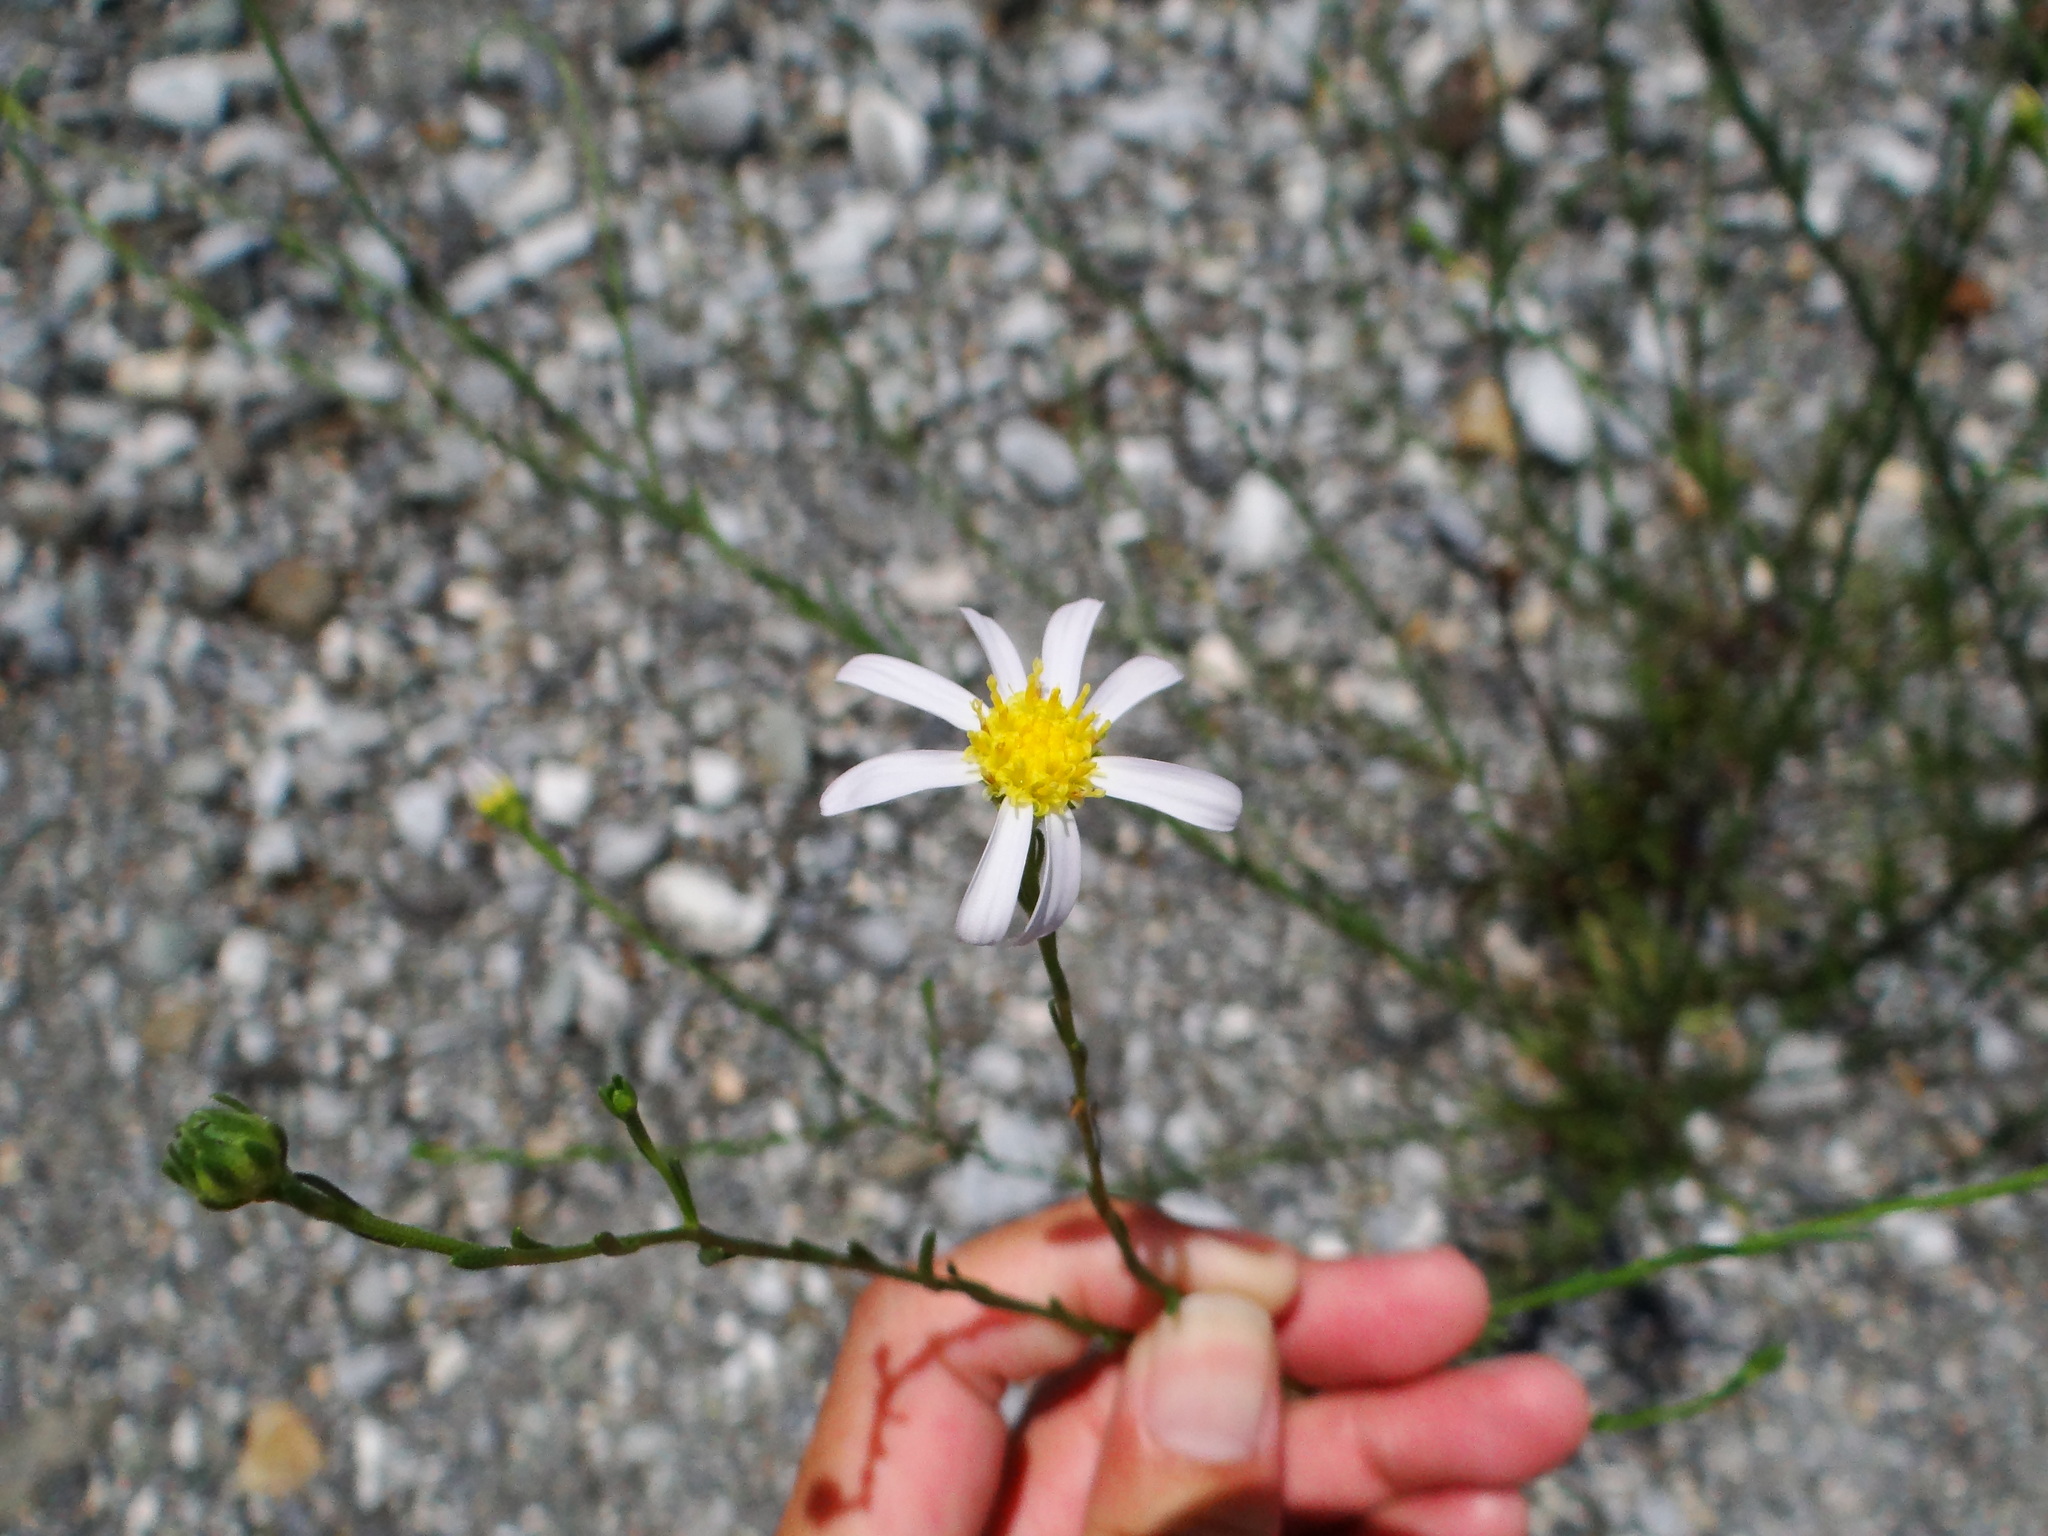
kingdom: Plantae
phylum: Tracheophyta
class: Magnoliopsida
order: Asterales
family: Asteraceae
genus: Heteropappus
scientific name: Heteropappus altaicus
